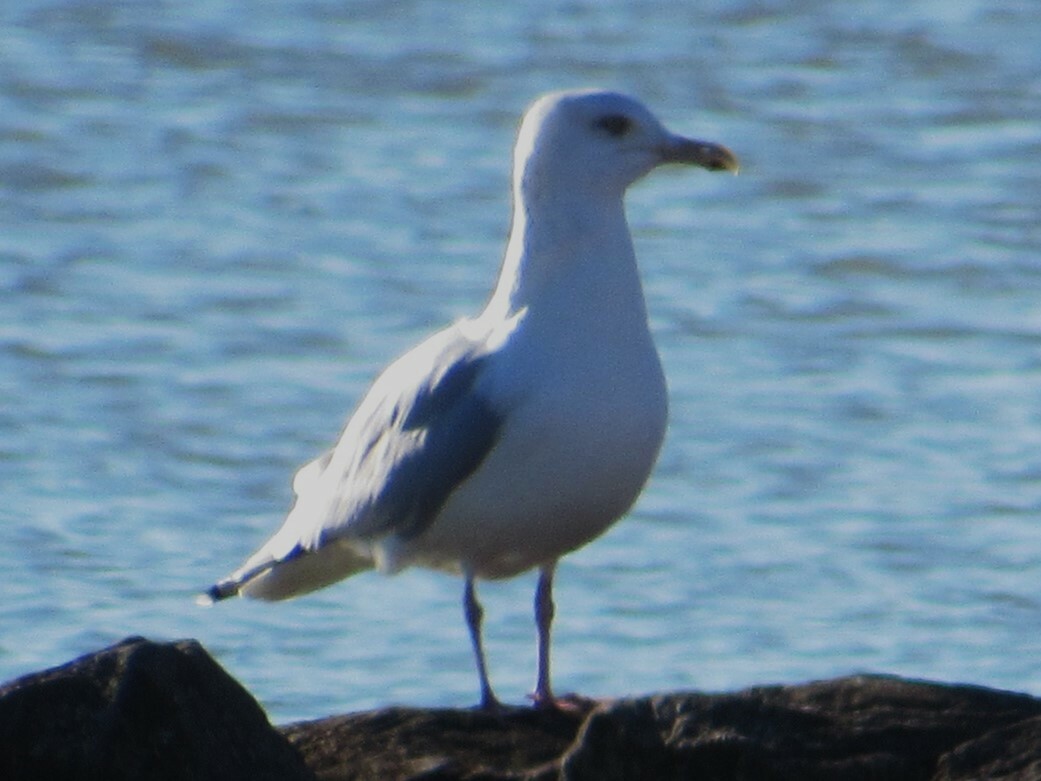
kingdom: Animalia
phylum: Chordata
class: Aves
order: Charadriiformes
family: Laridae
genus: Larus
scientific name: Larus argentatus
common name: Herring gull
